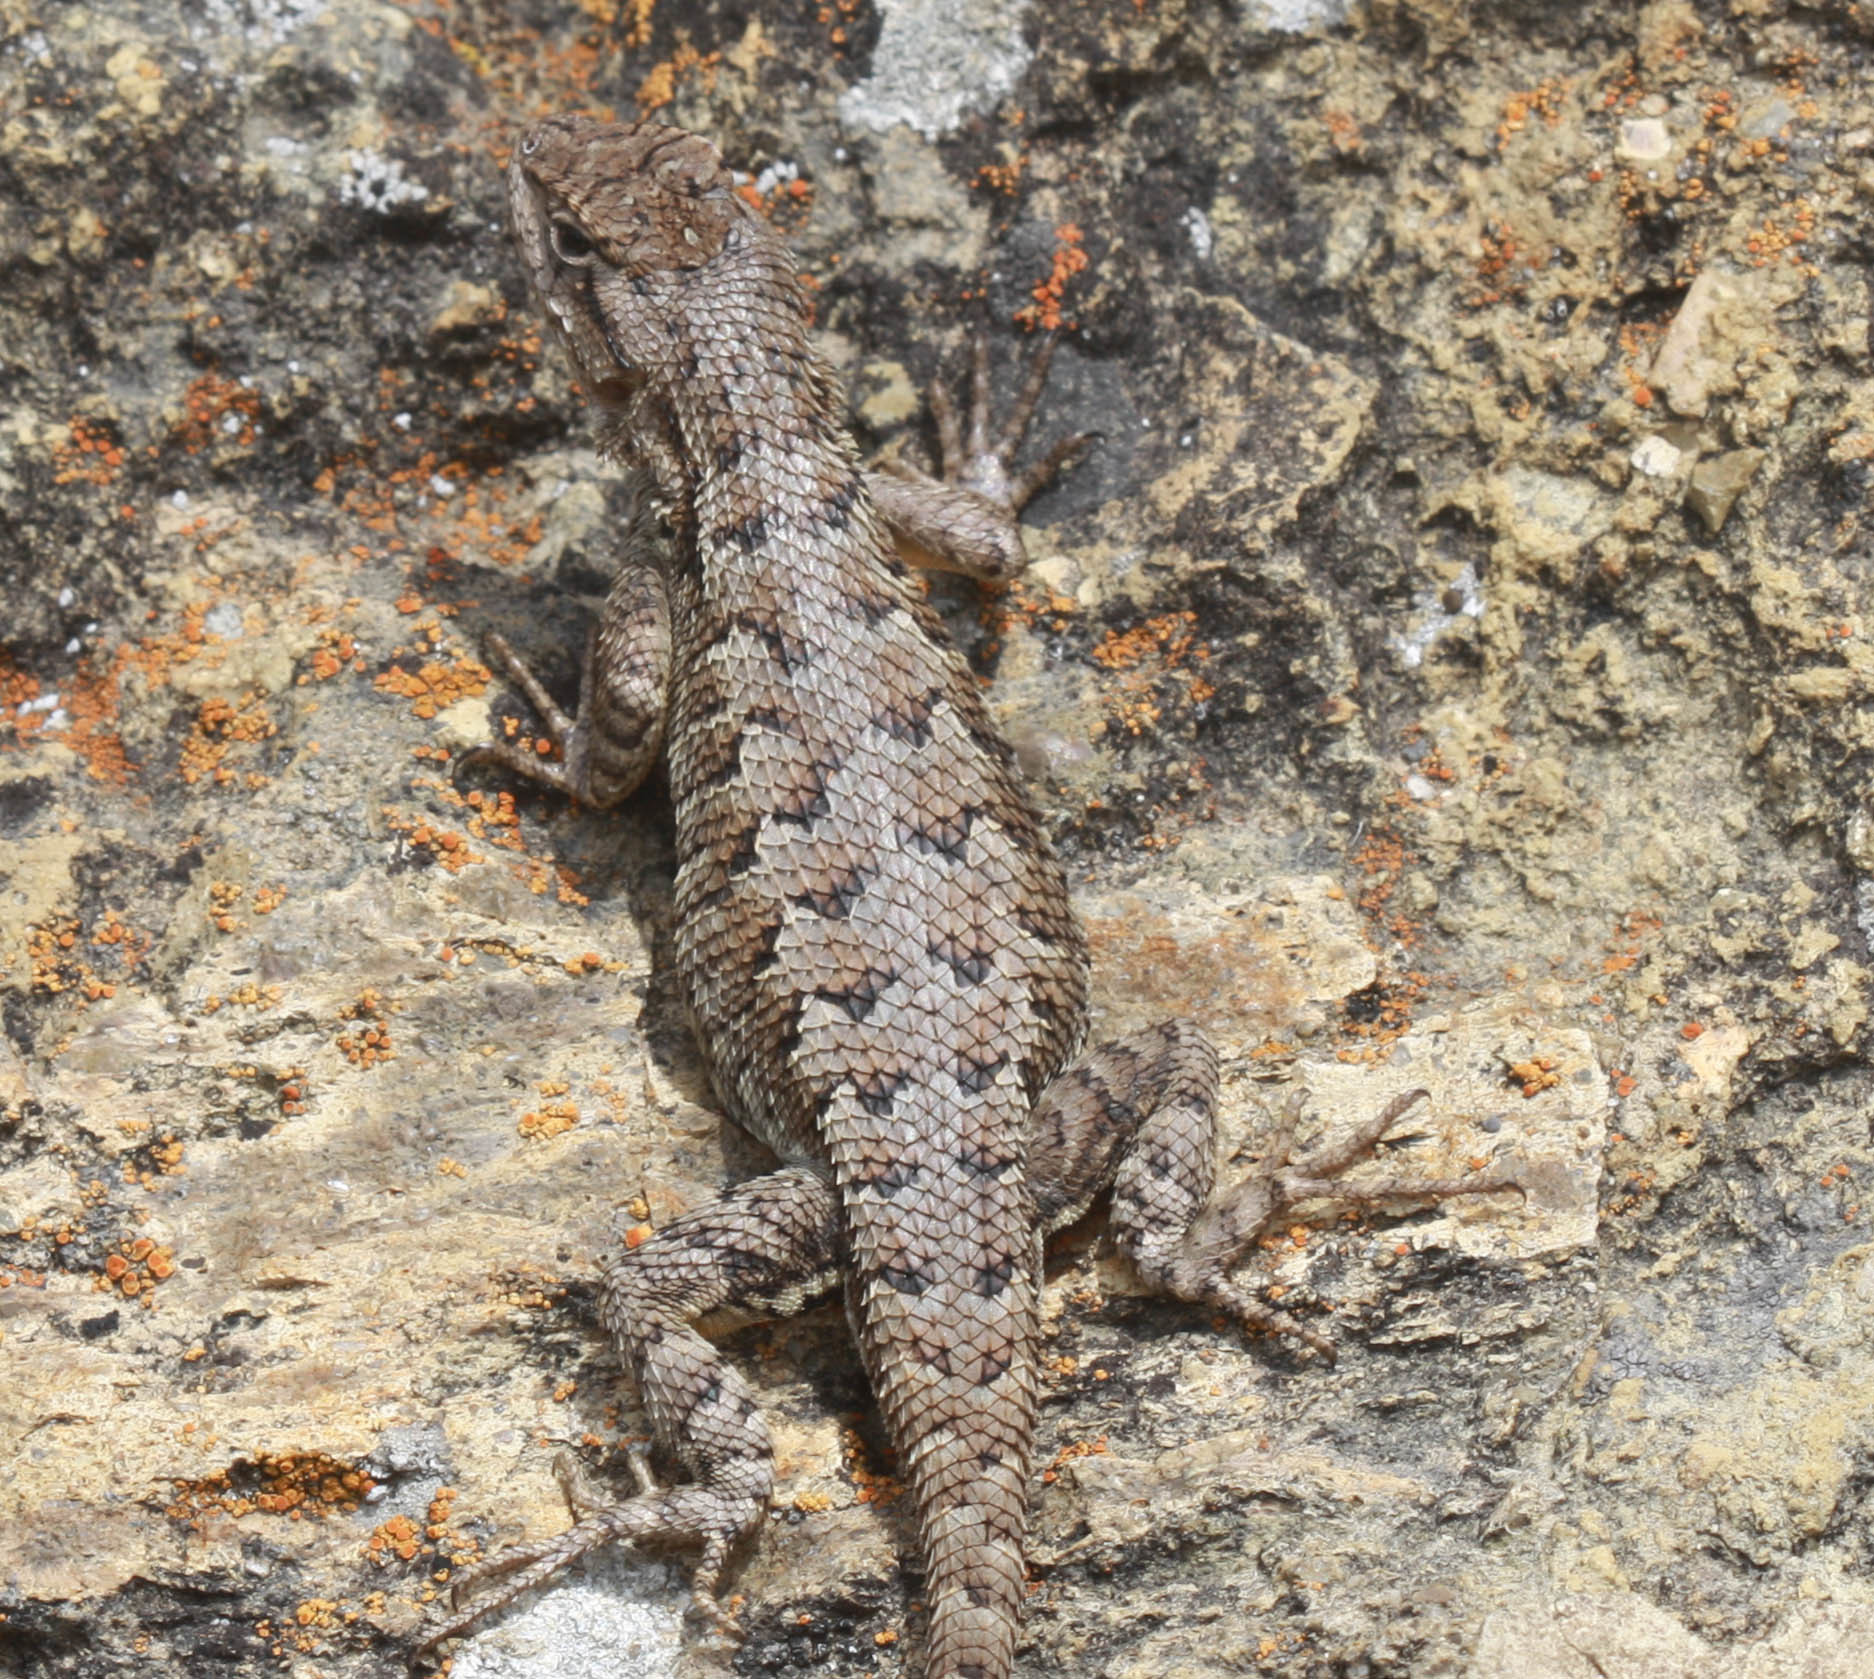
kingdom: Animalia
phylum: Chordata
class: Squamata
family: Phrynosomatidae
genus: Sceloporus
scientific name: Sceloporus occidentalis
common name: Western fence lizard
